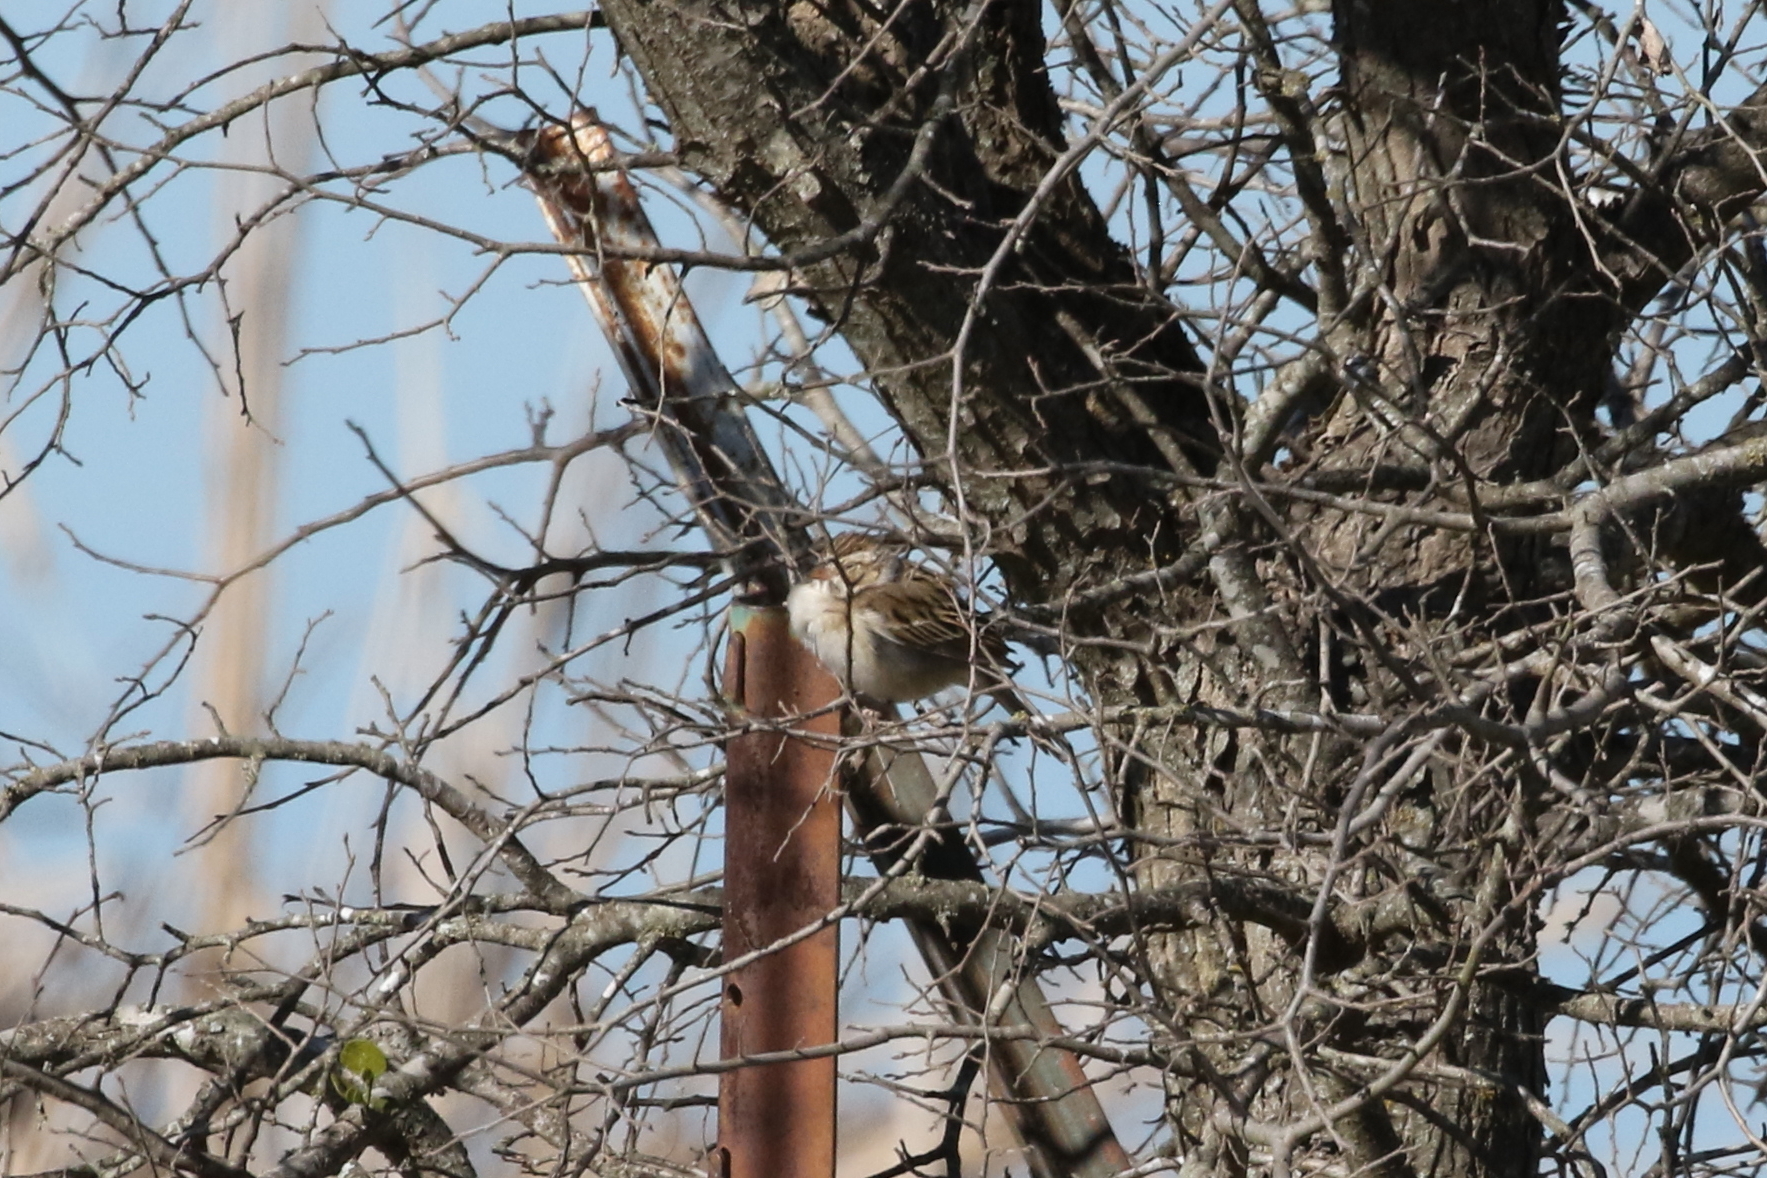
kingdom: Animalia
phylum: Chordata
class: Aves
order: Passeriformes
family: Passerellidae
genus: Spizella
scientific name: Spizella pallida
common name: Clay-colored sparrow
